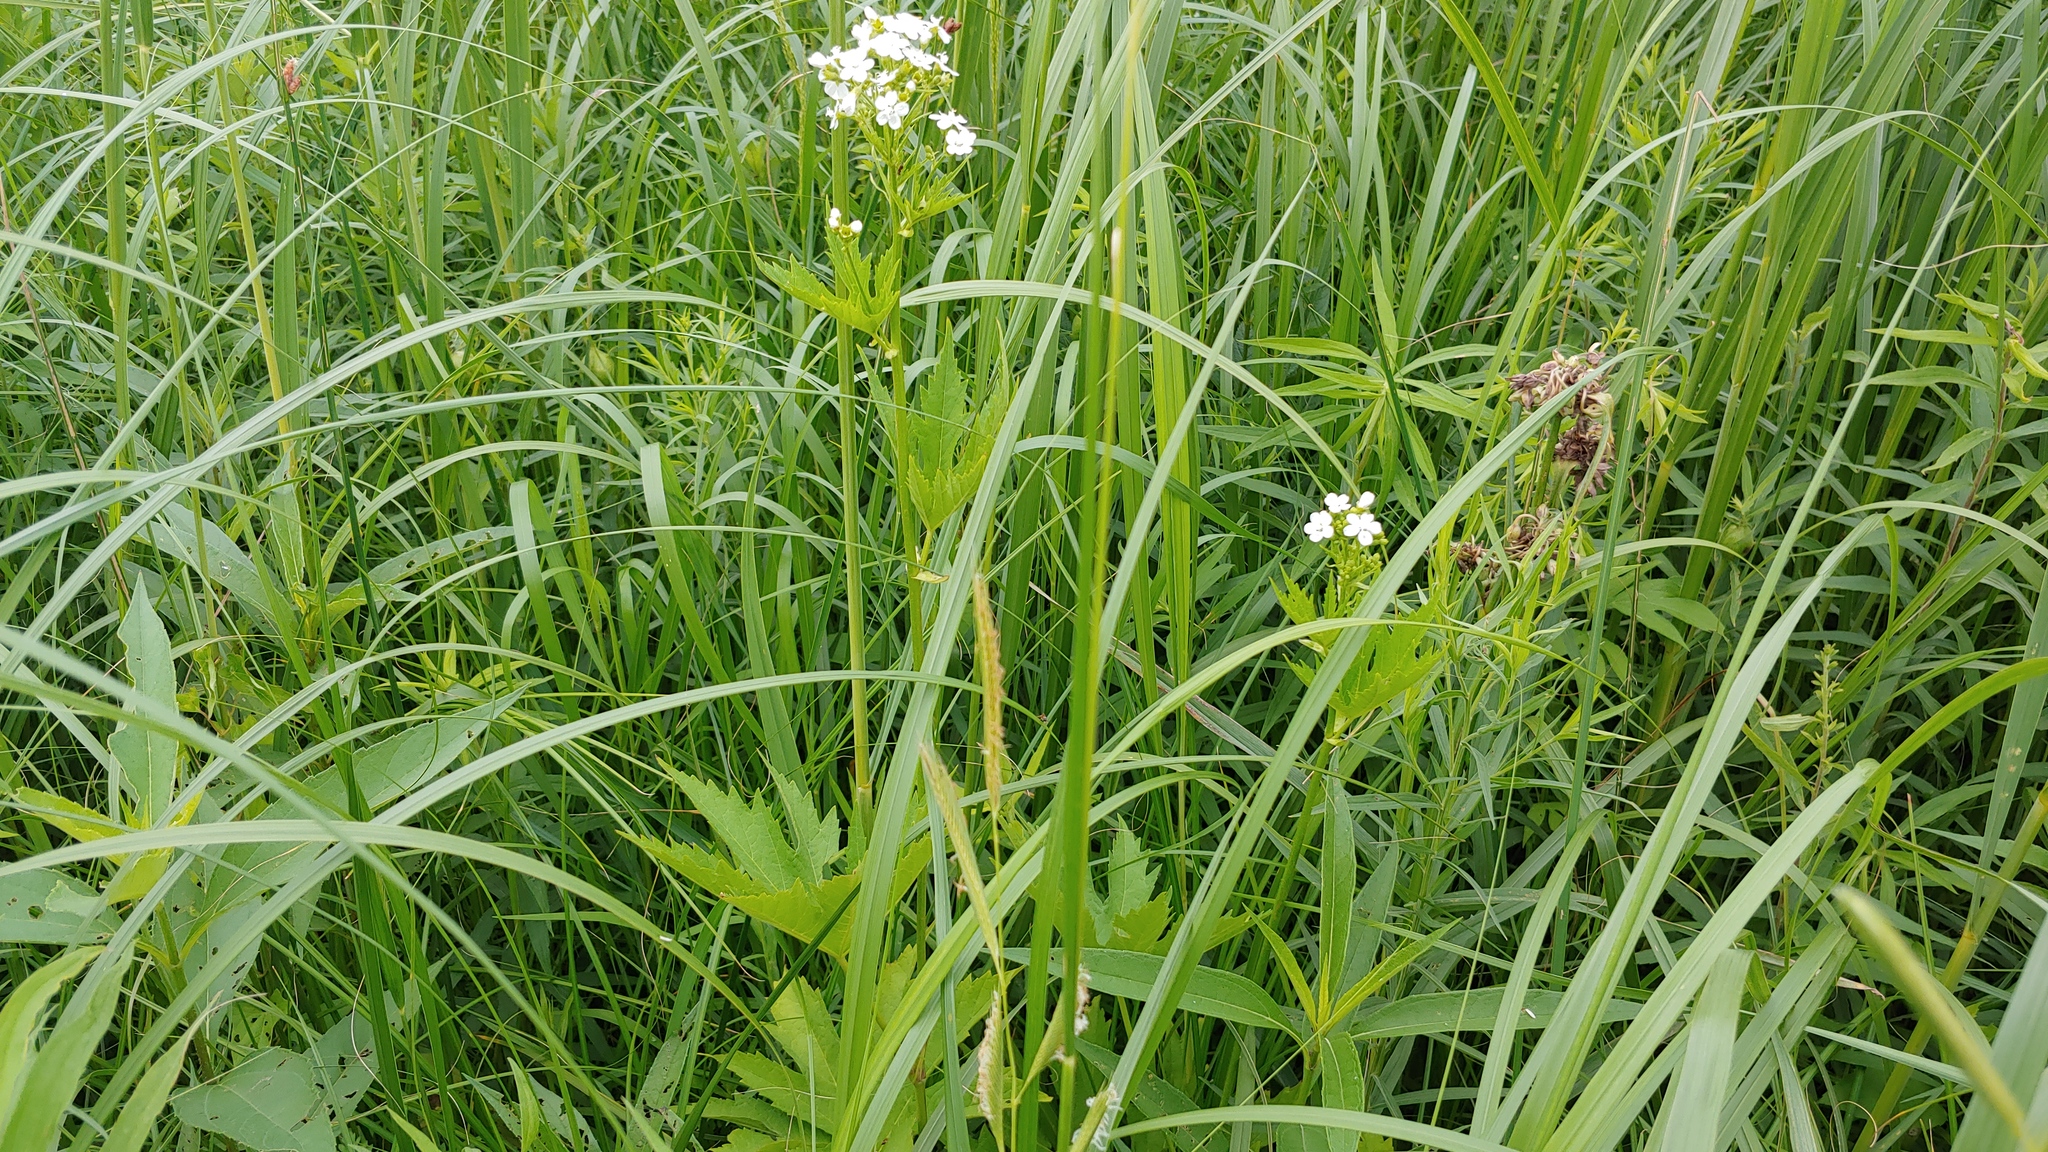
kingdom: Plantae
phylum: Tracheophyta
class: Magnoliopsida
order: Malvales
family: Malvaceae
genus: Napaea
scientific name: Napaea dioica
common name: Glade-mallow
